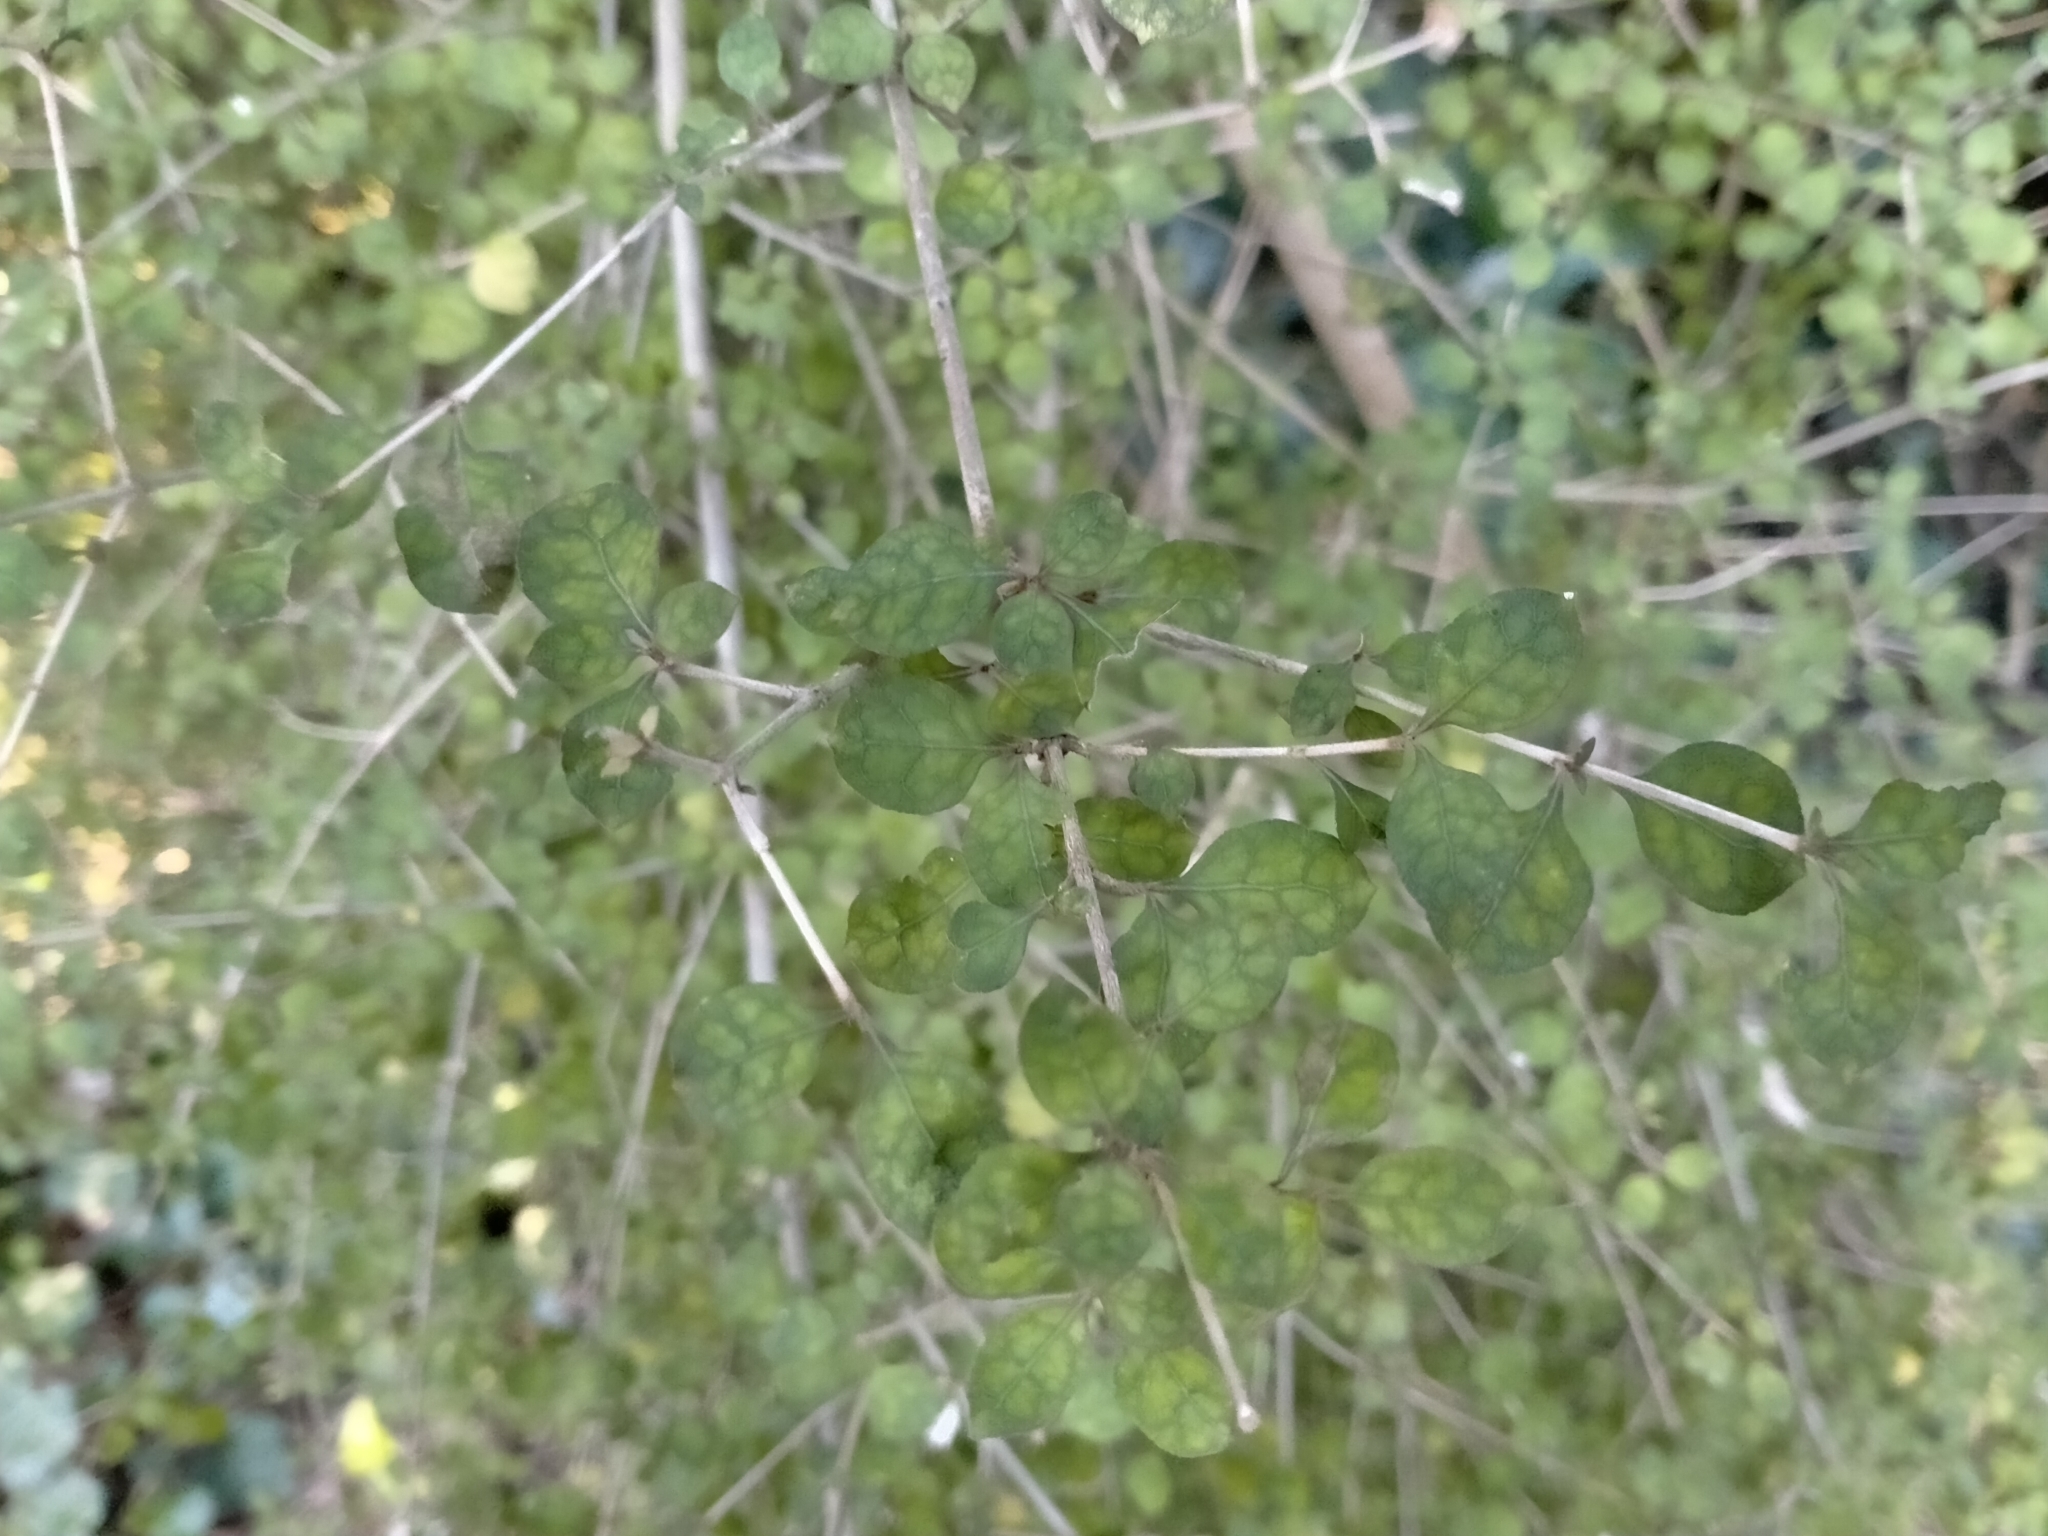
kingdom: Plantae
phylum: Tracheophyta
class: Magnoliopsida
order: Gentianales
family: Rubiaceae
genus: Coprosma
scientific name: Coprosma areolata
